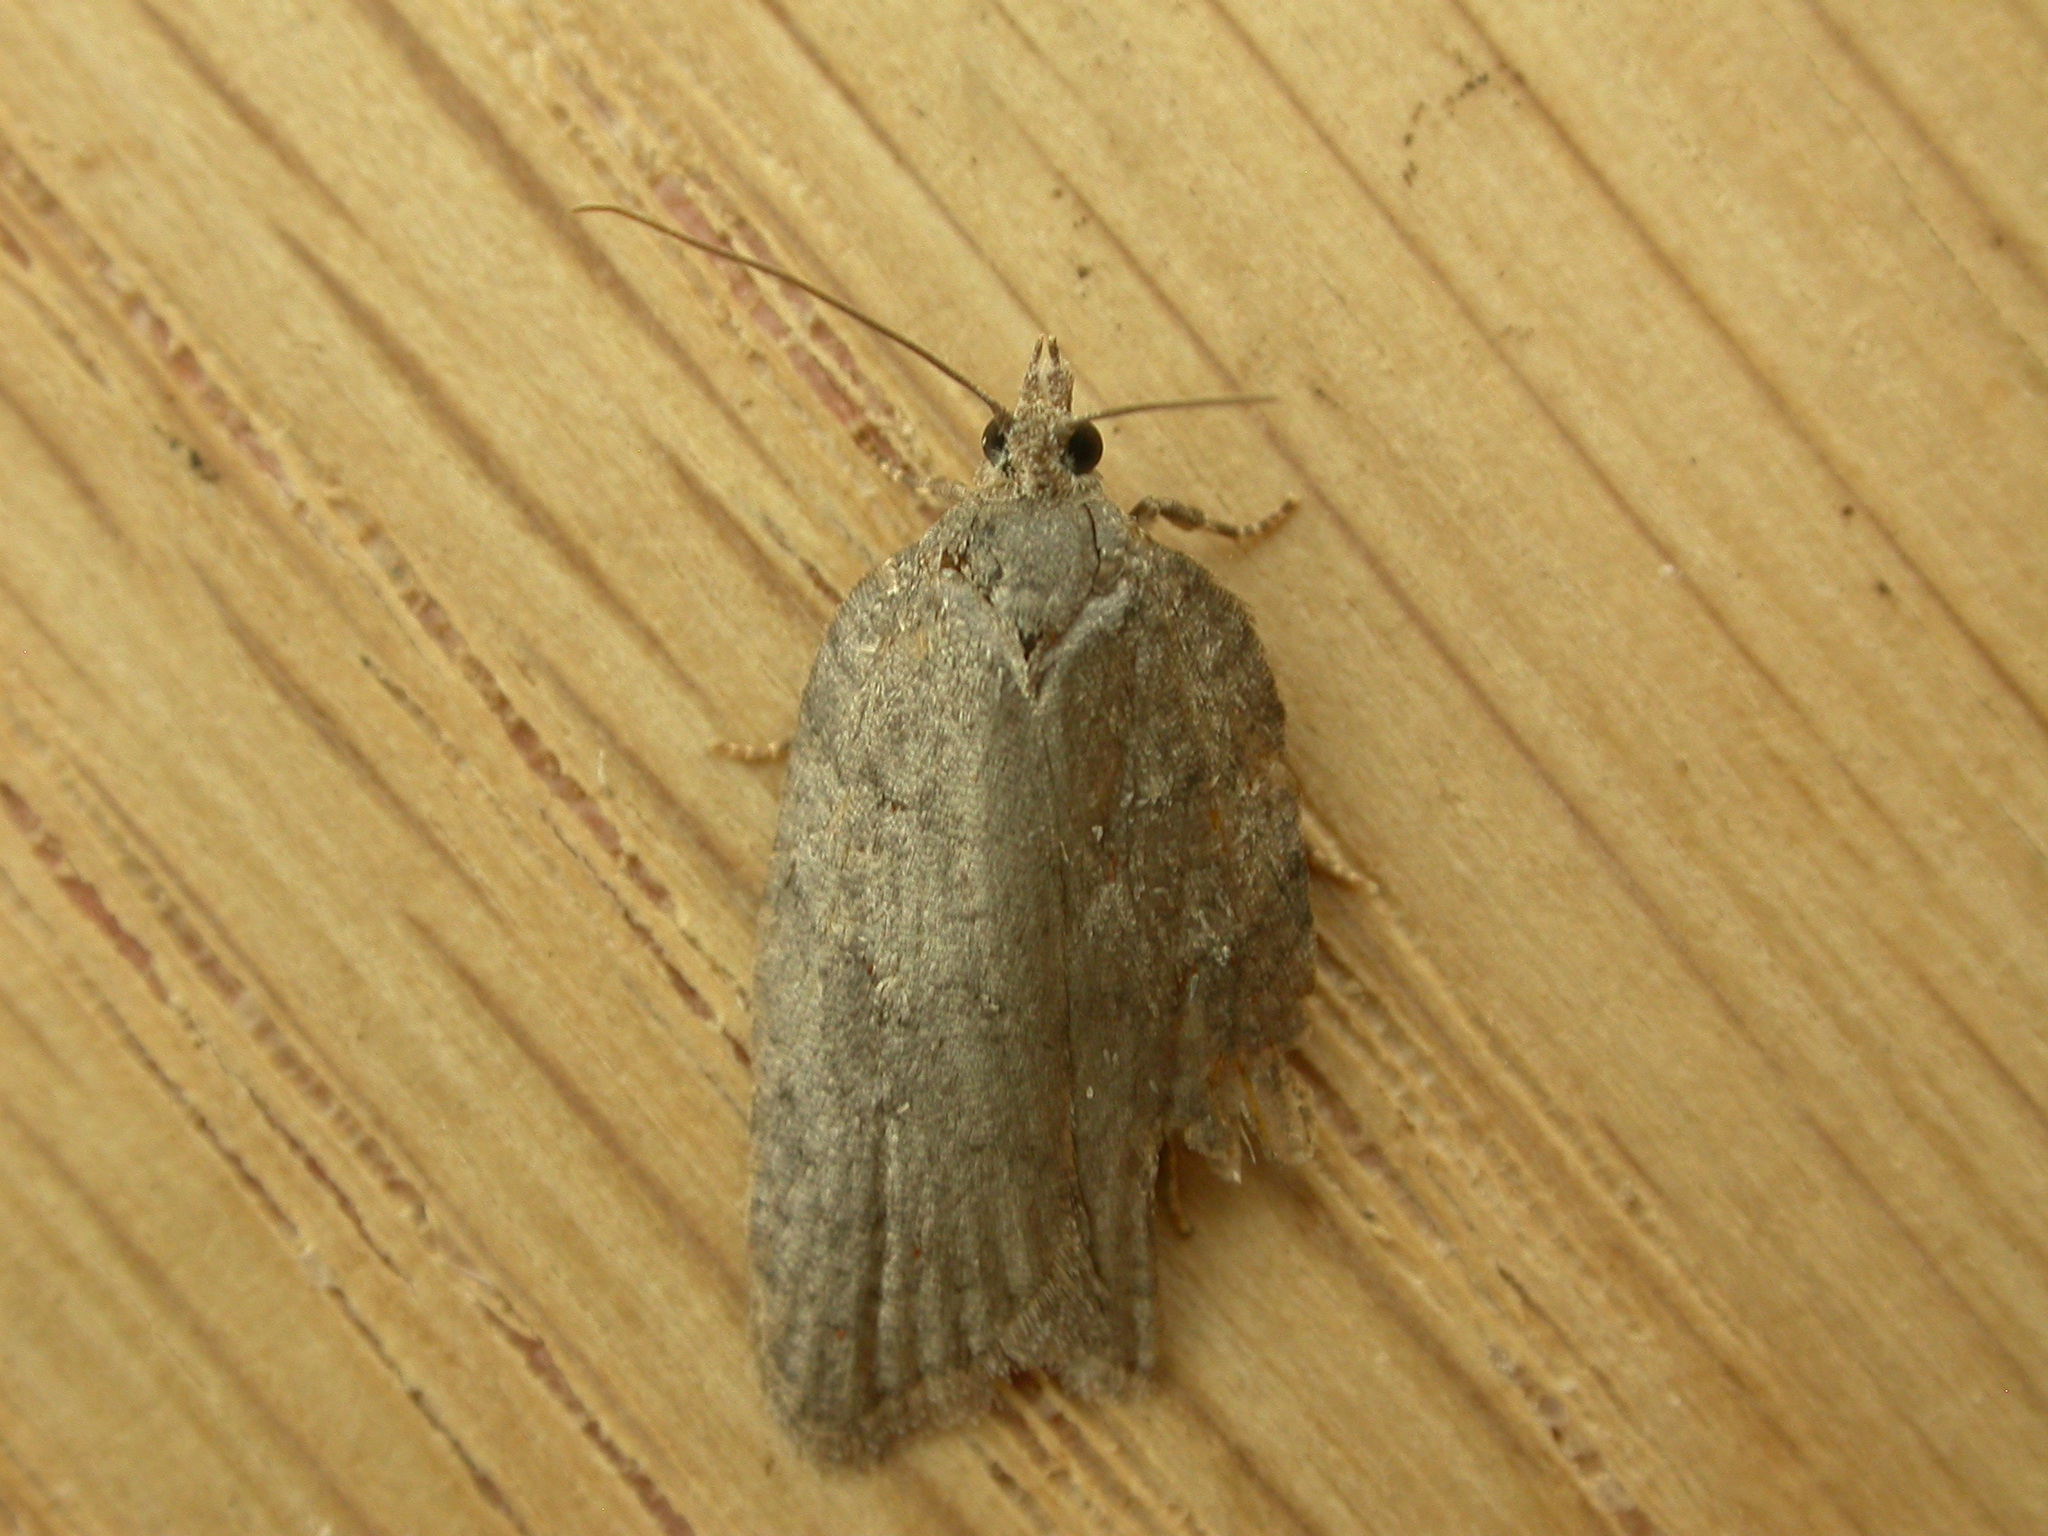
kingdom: Animalia
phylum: Arthropoda
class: Insecta
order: Lepidoptera
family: Tortricidae
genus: Acleris
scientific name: Acleris sparsana
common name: Ashy button
